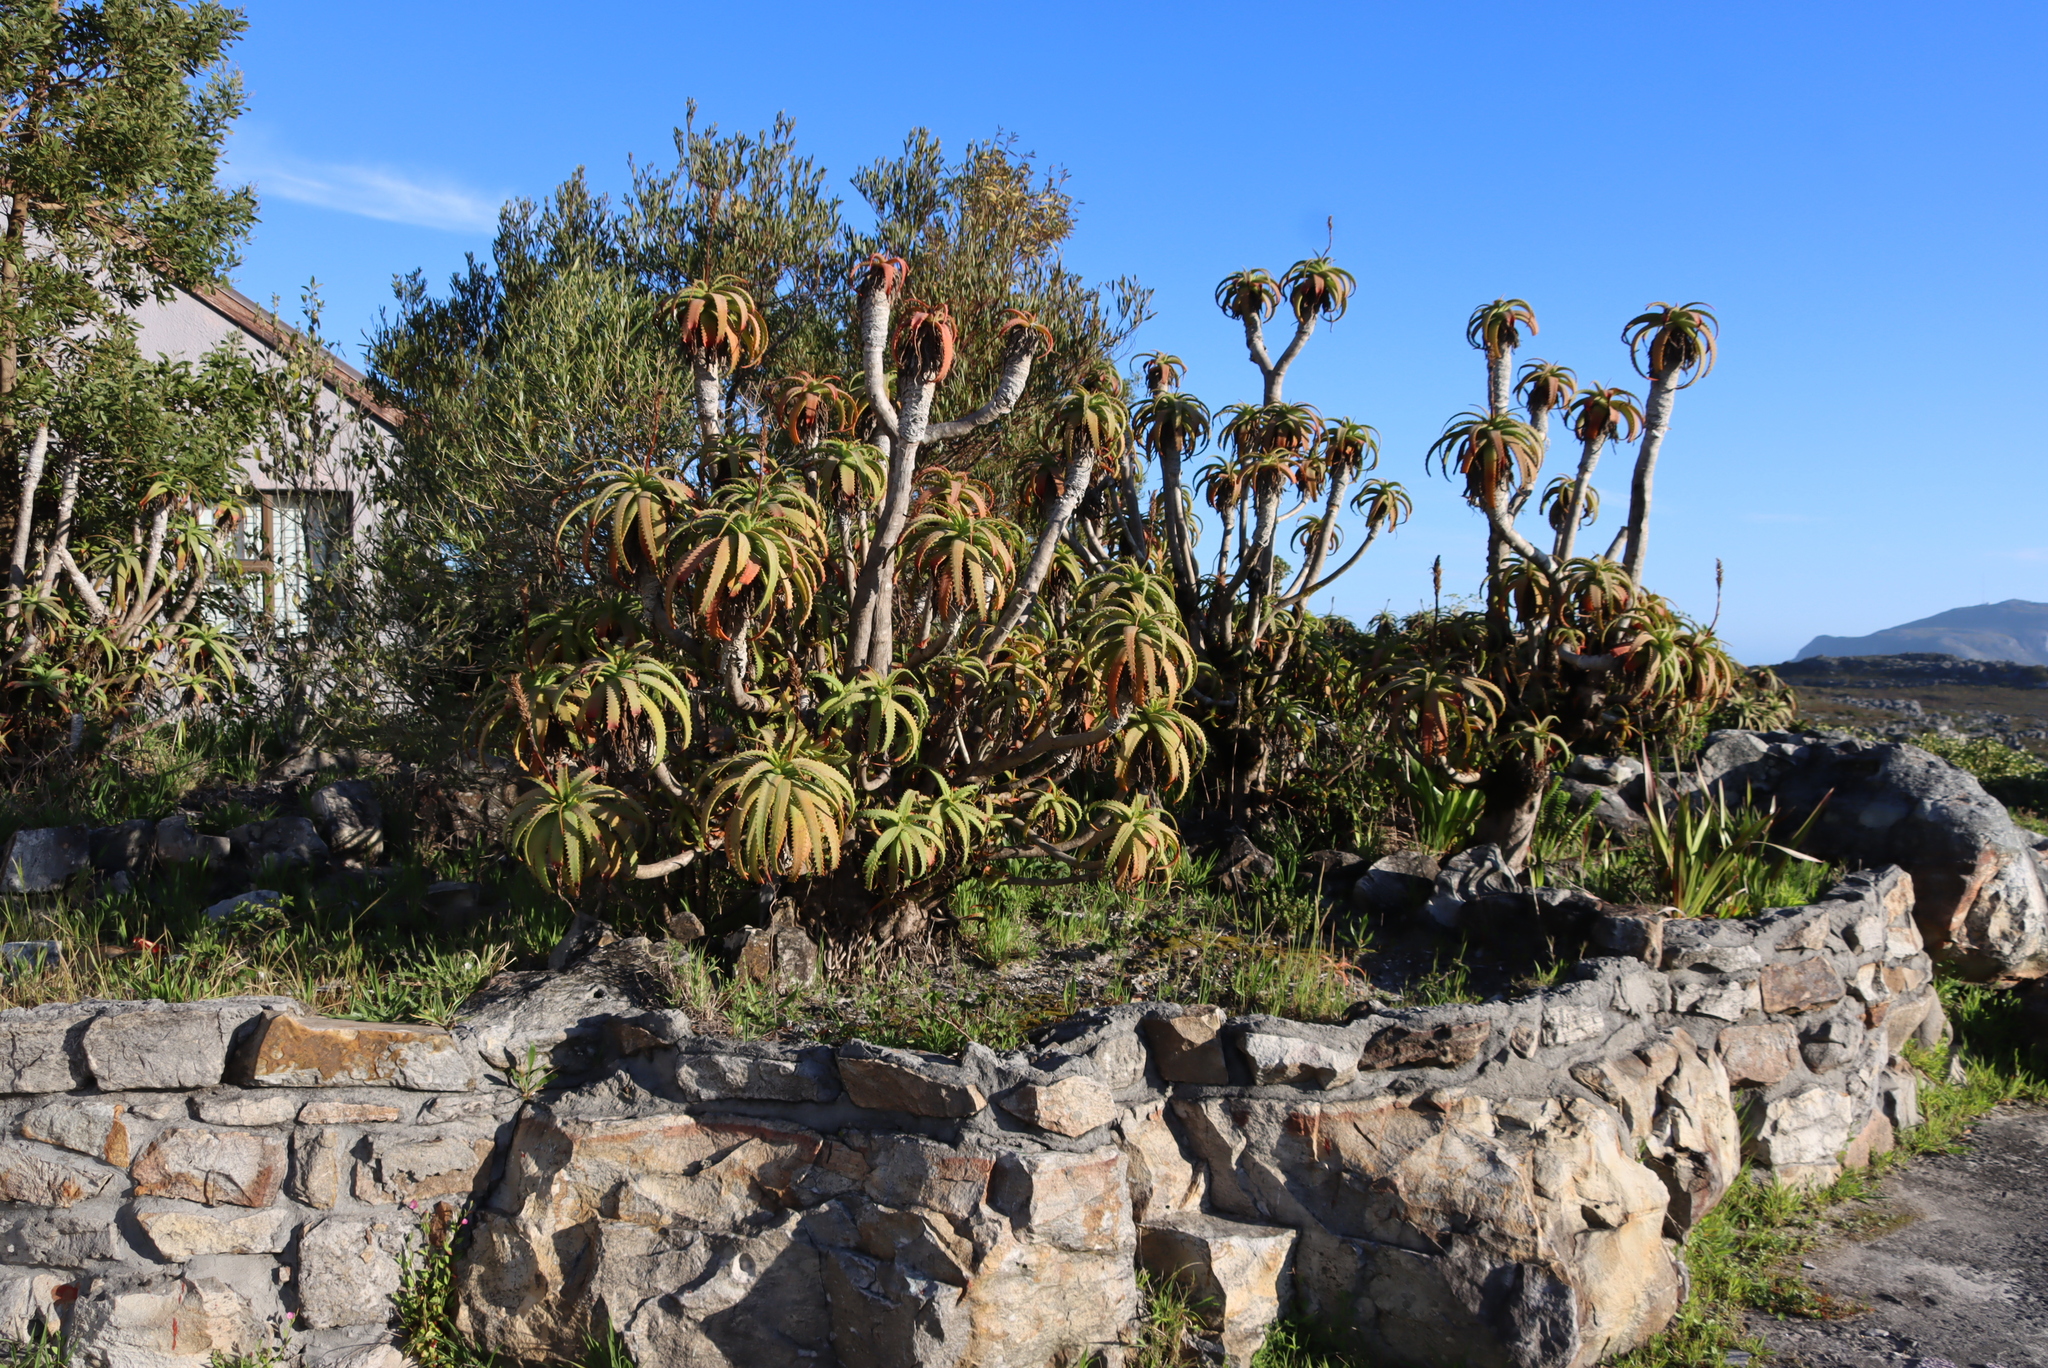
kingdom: Plantae
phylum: Tracheophyta
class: Liliopsida
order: Asparagales
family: Asphodelaceae
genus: Aloe
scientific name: Aloe arborescens
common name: Candelabra aloe
